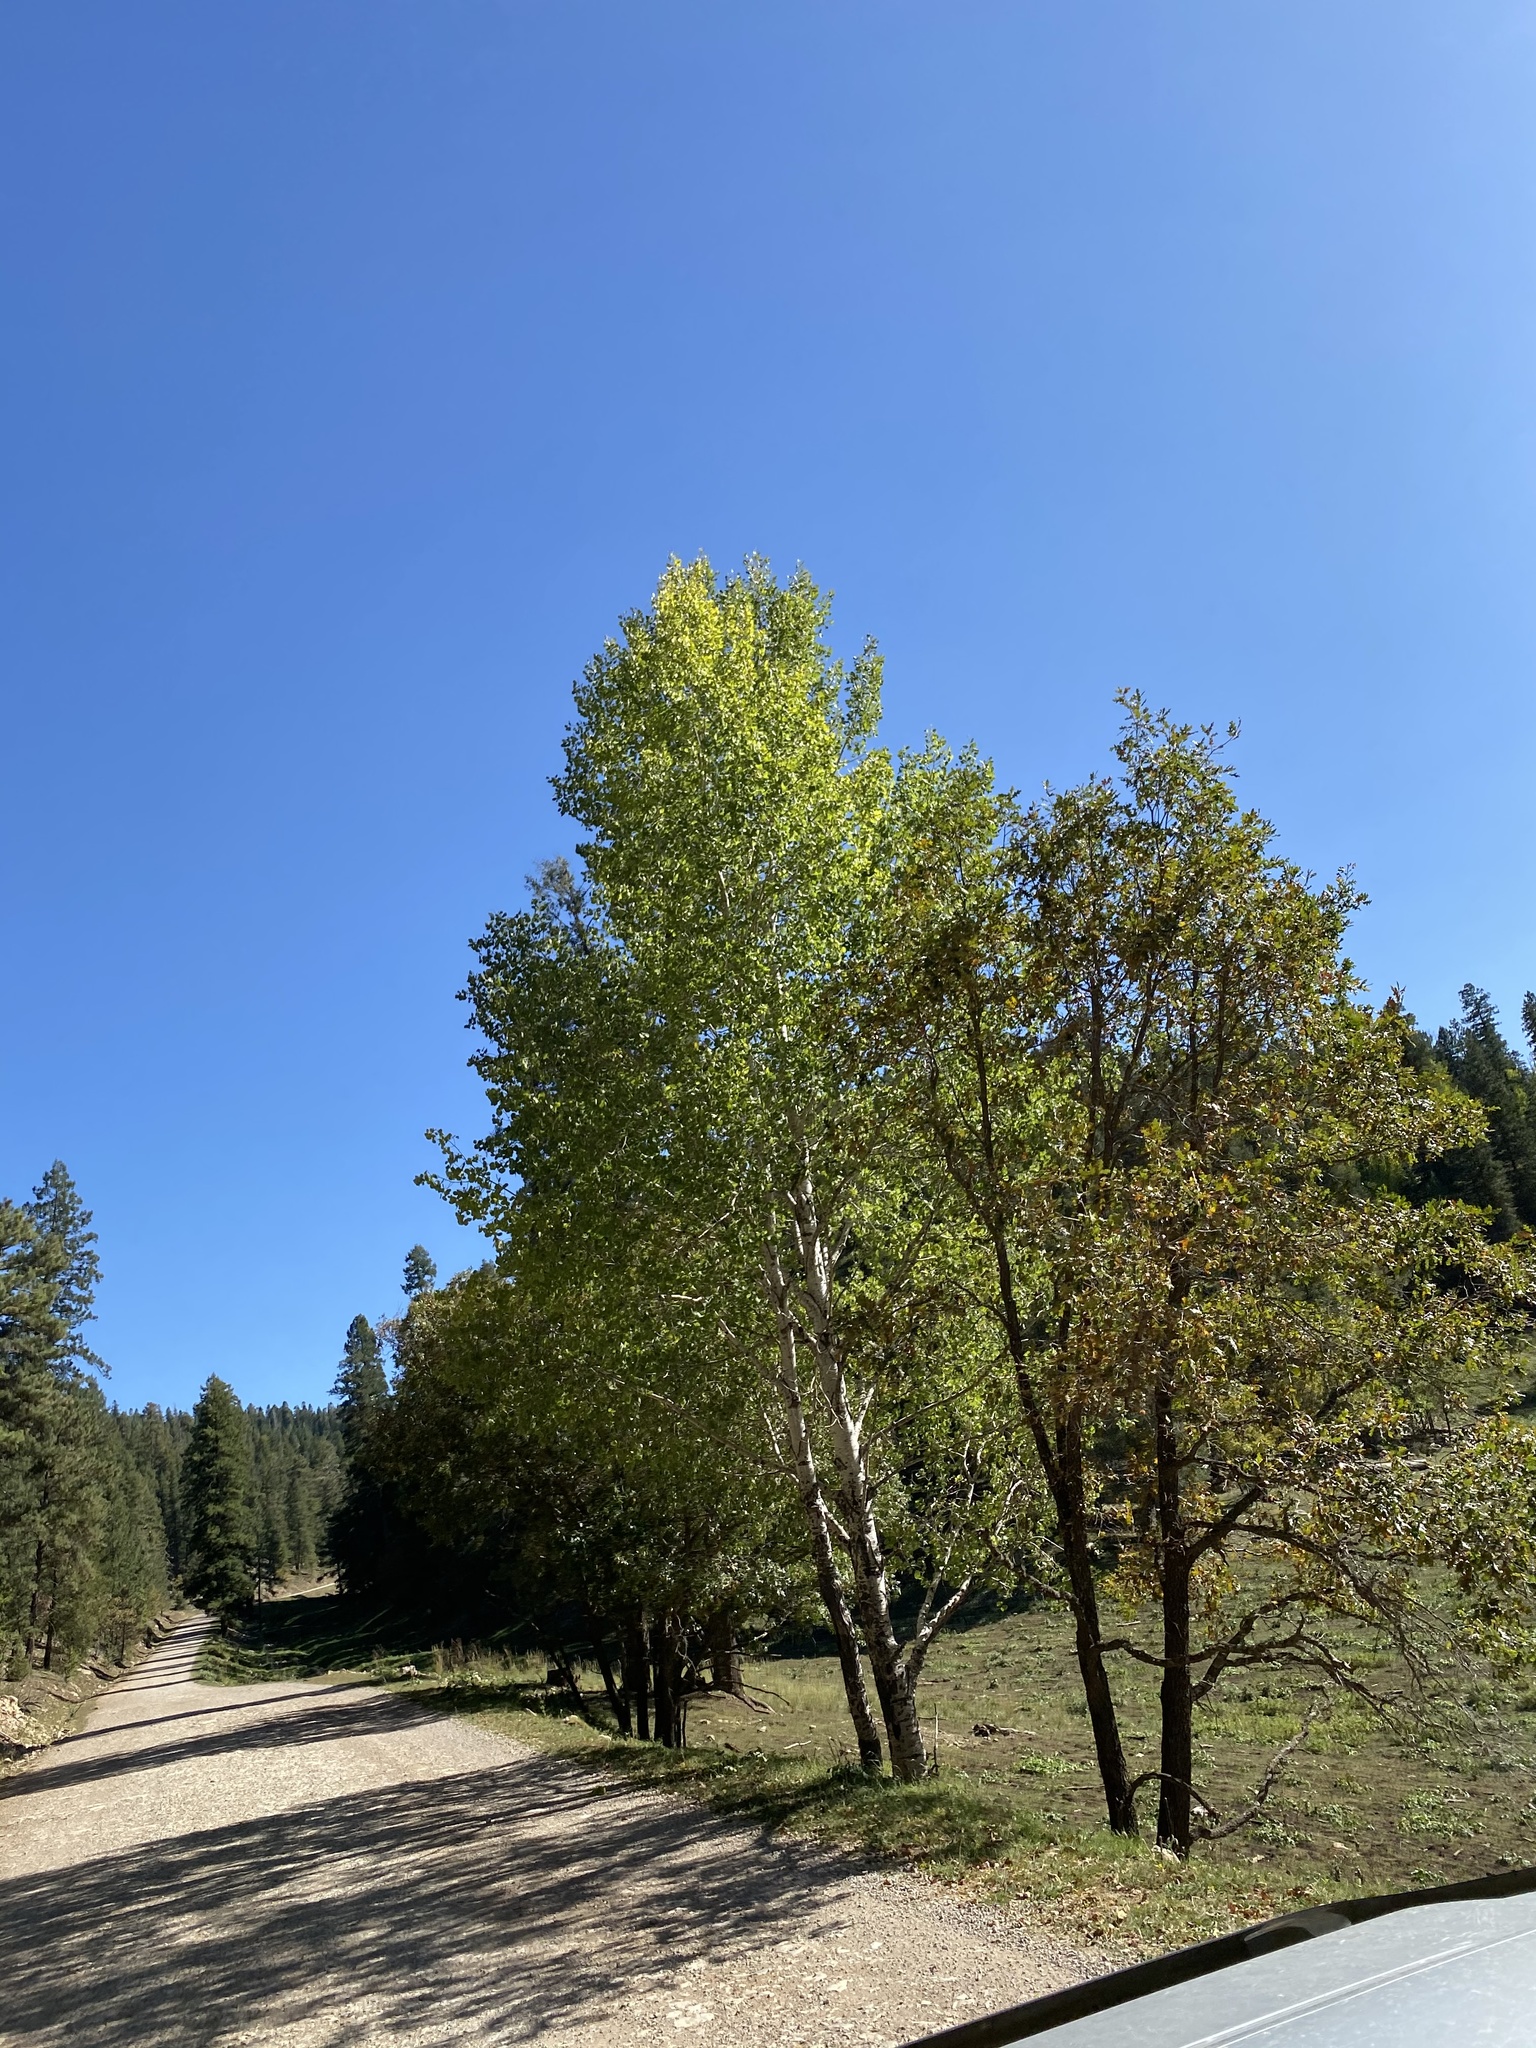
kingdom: Plantae
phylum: Tracheophyta
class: Magnoliopsida
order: Malpighiales
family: Salicaceae
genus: Populus
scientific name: Populus tremuloides
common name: Quaking aspen
